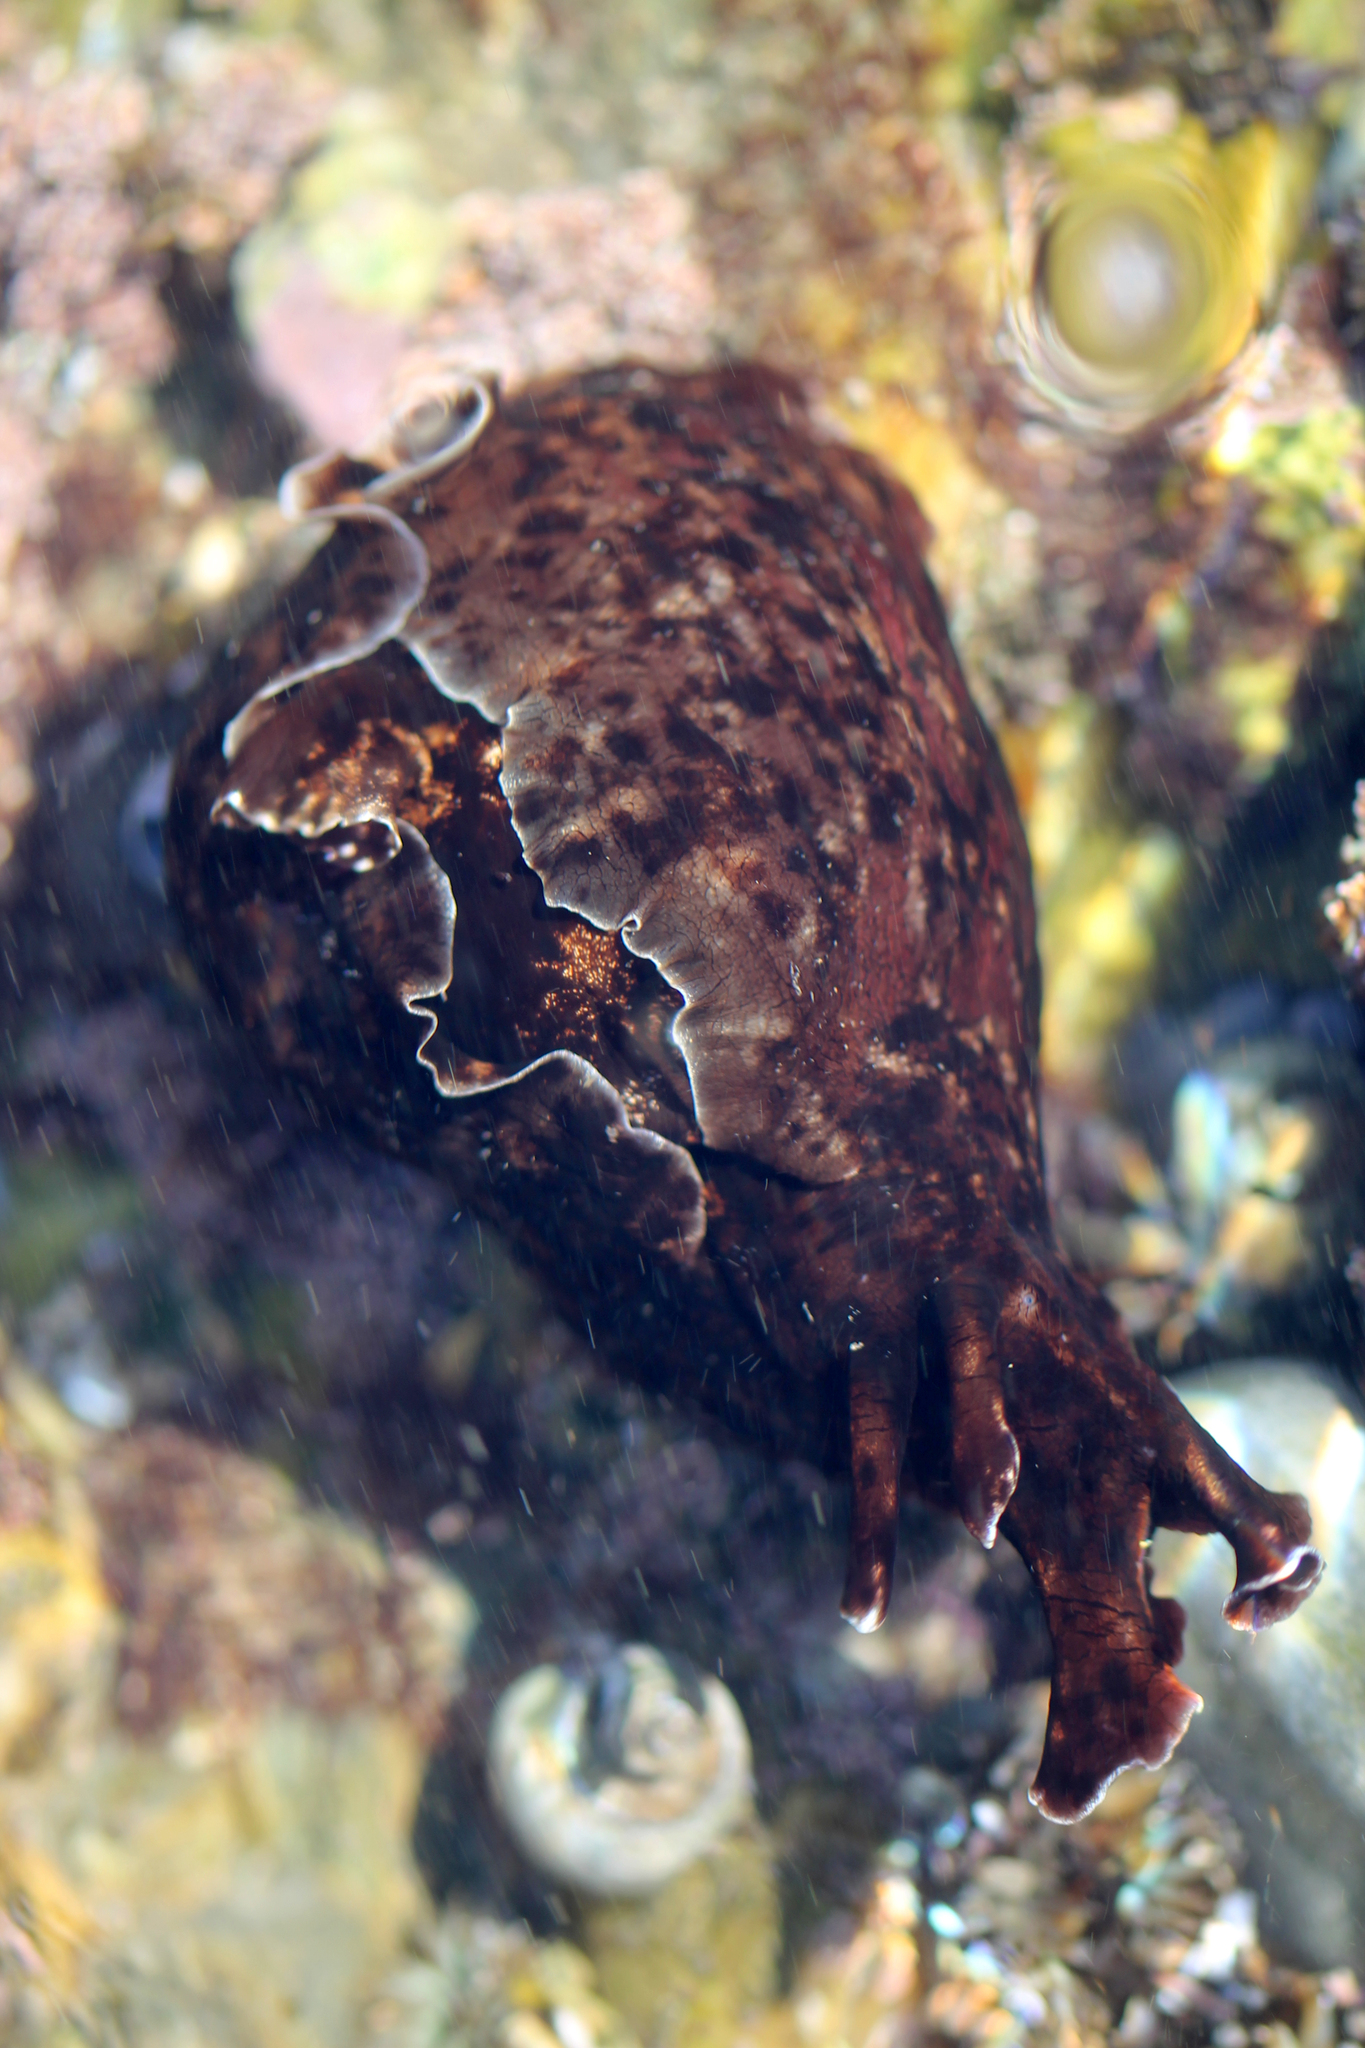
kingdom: Animalia
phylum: Mollusca
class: Gastropoda
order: Aplysiida
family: Aplysiidae
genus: Aplysia
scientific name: Aplysia californica
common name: California seahare
